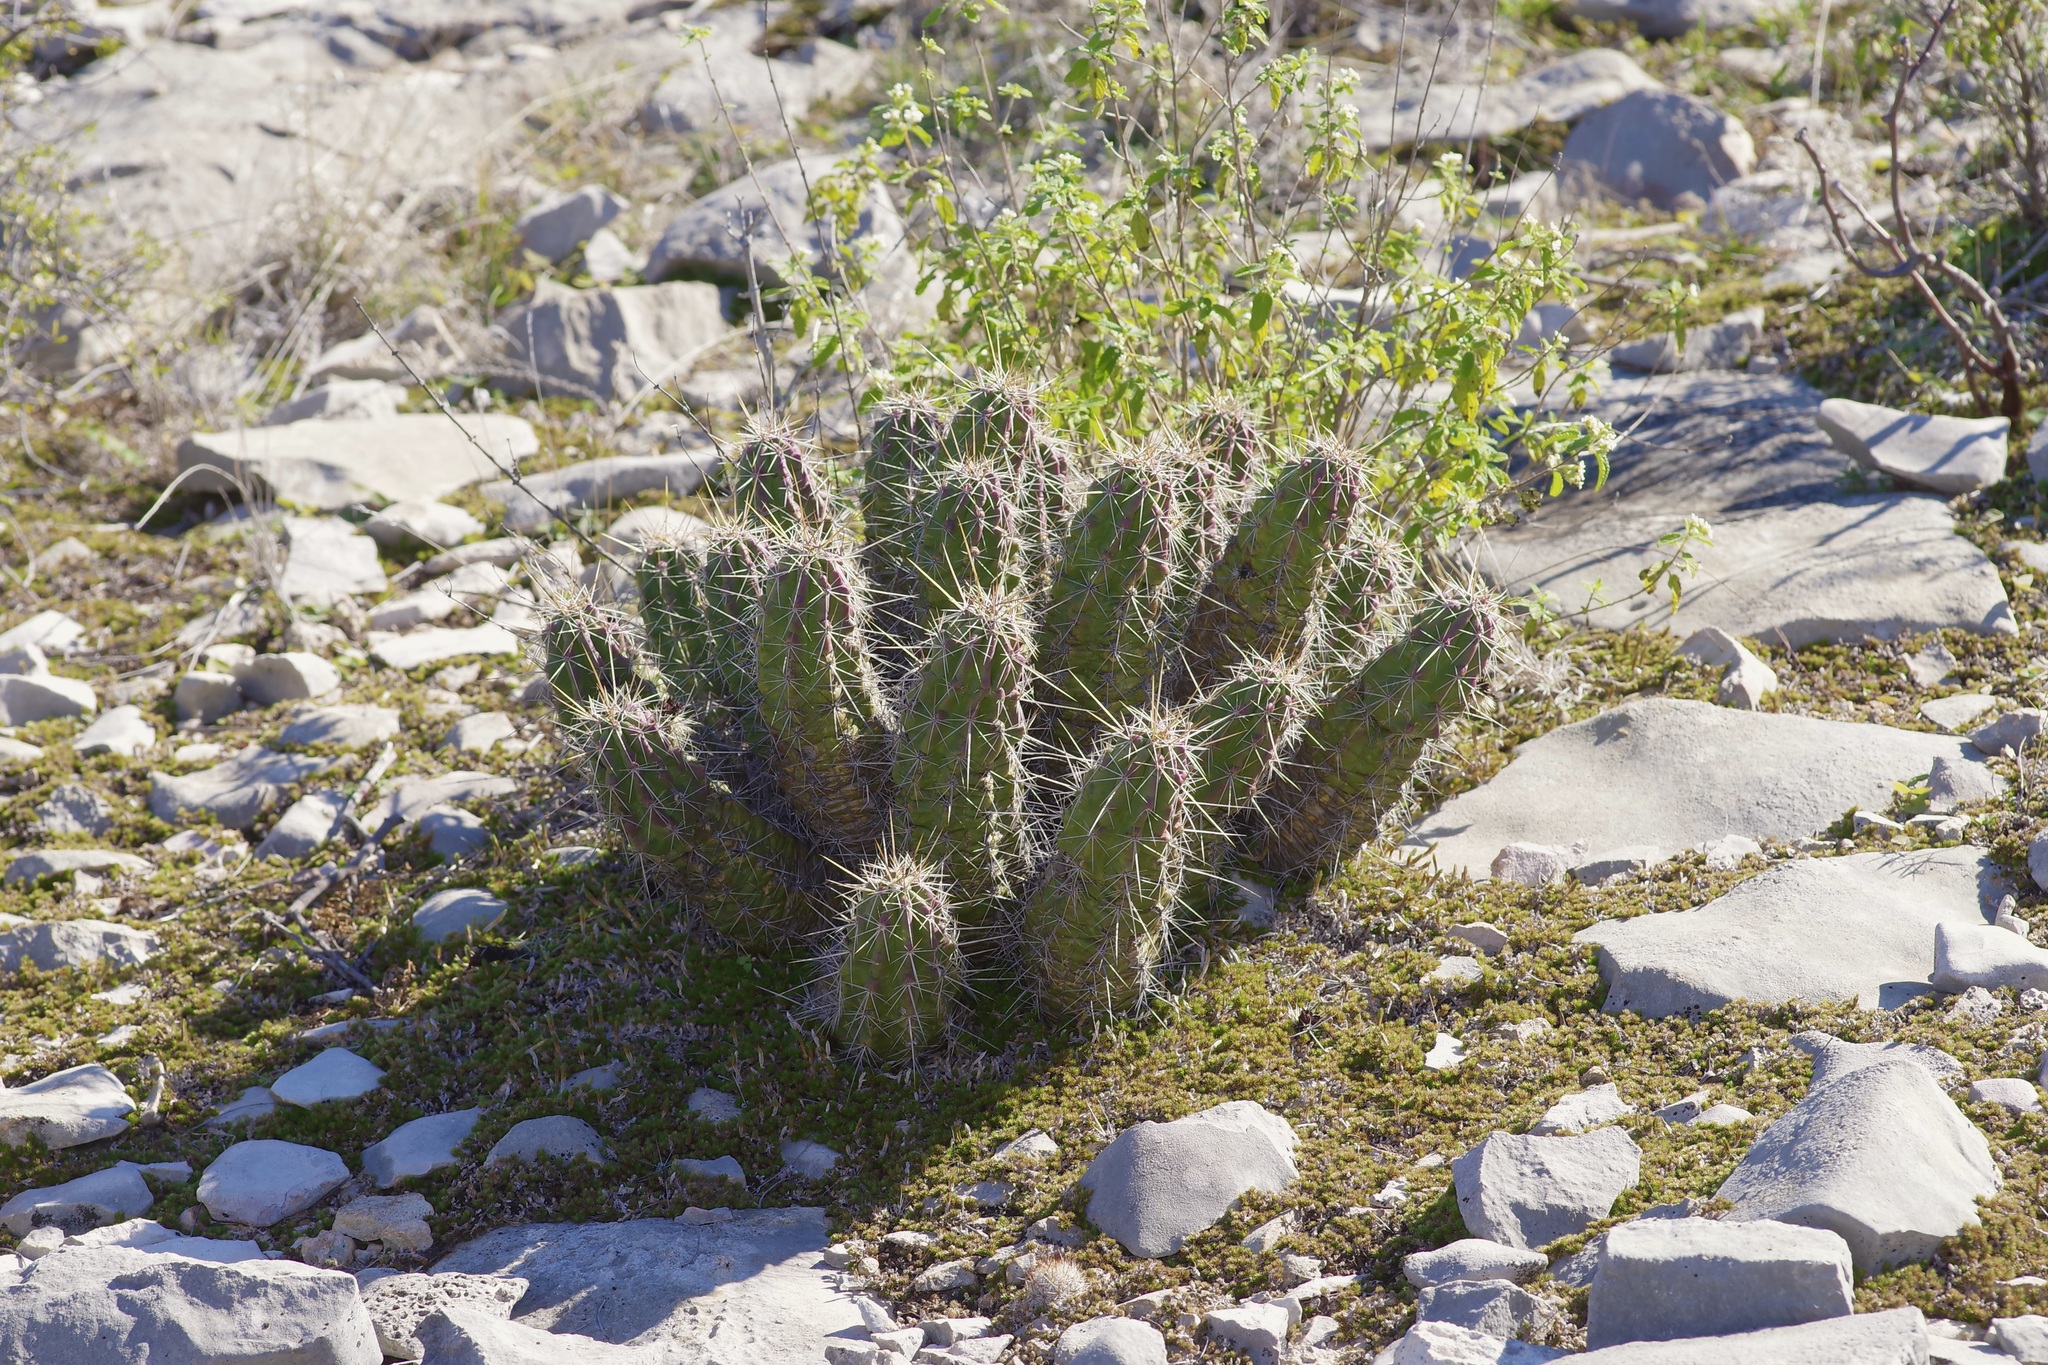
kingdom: Plantae
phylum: Tracheophyta
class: Magnoliopsida
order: Caryophyllales
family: Cactaceae
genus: Echinocereus
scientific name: Echinocereus enneacanthus
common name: Pitaya
